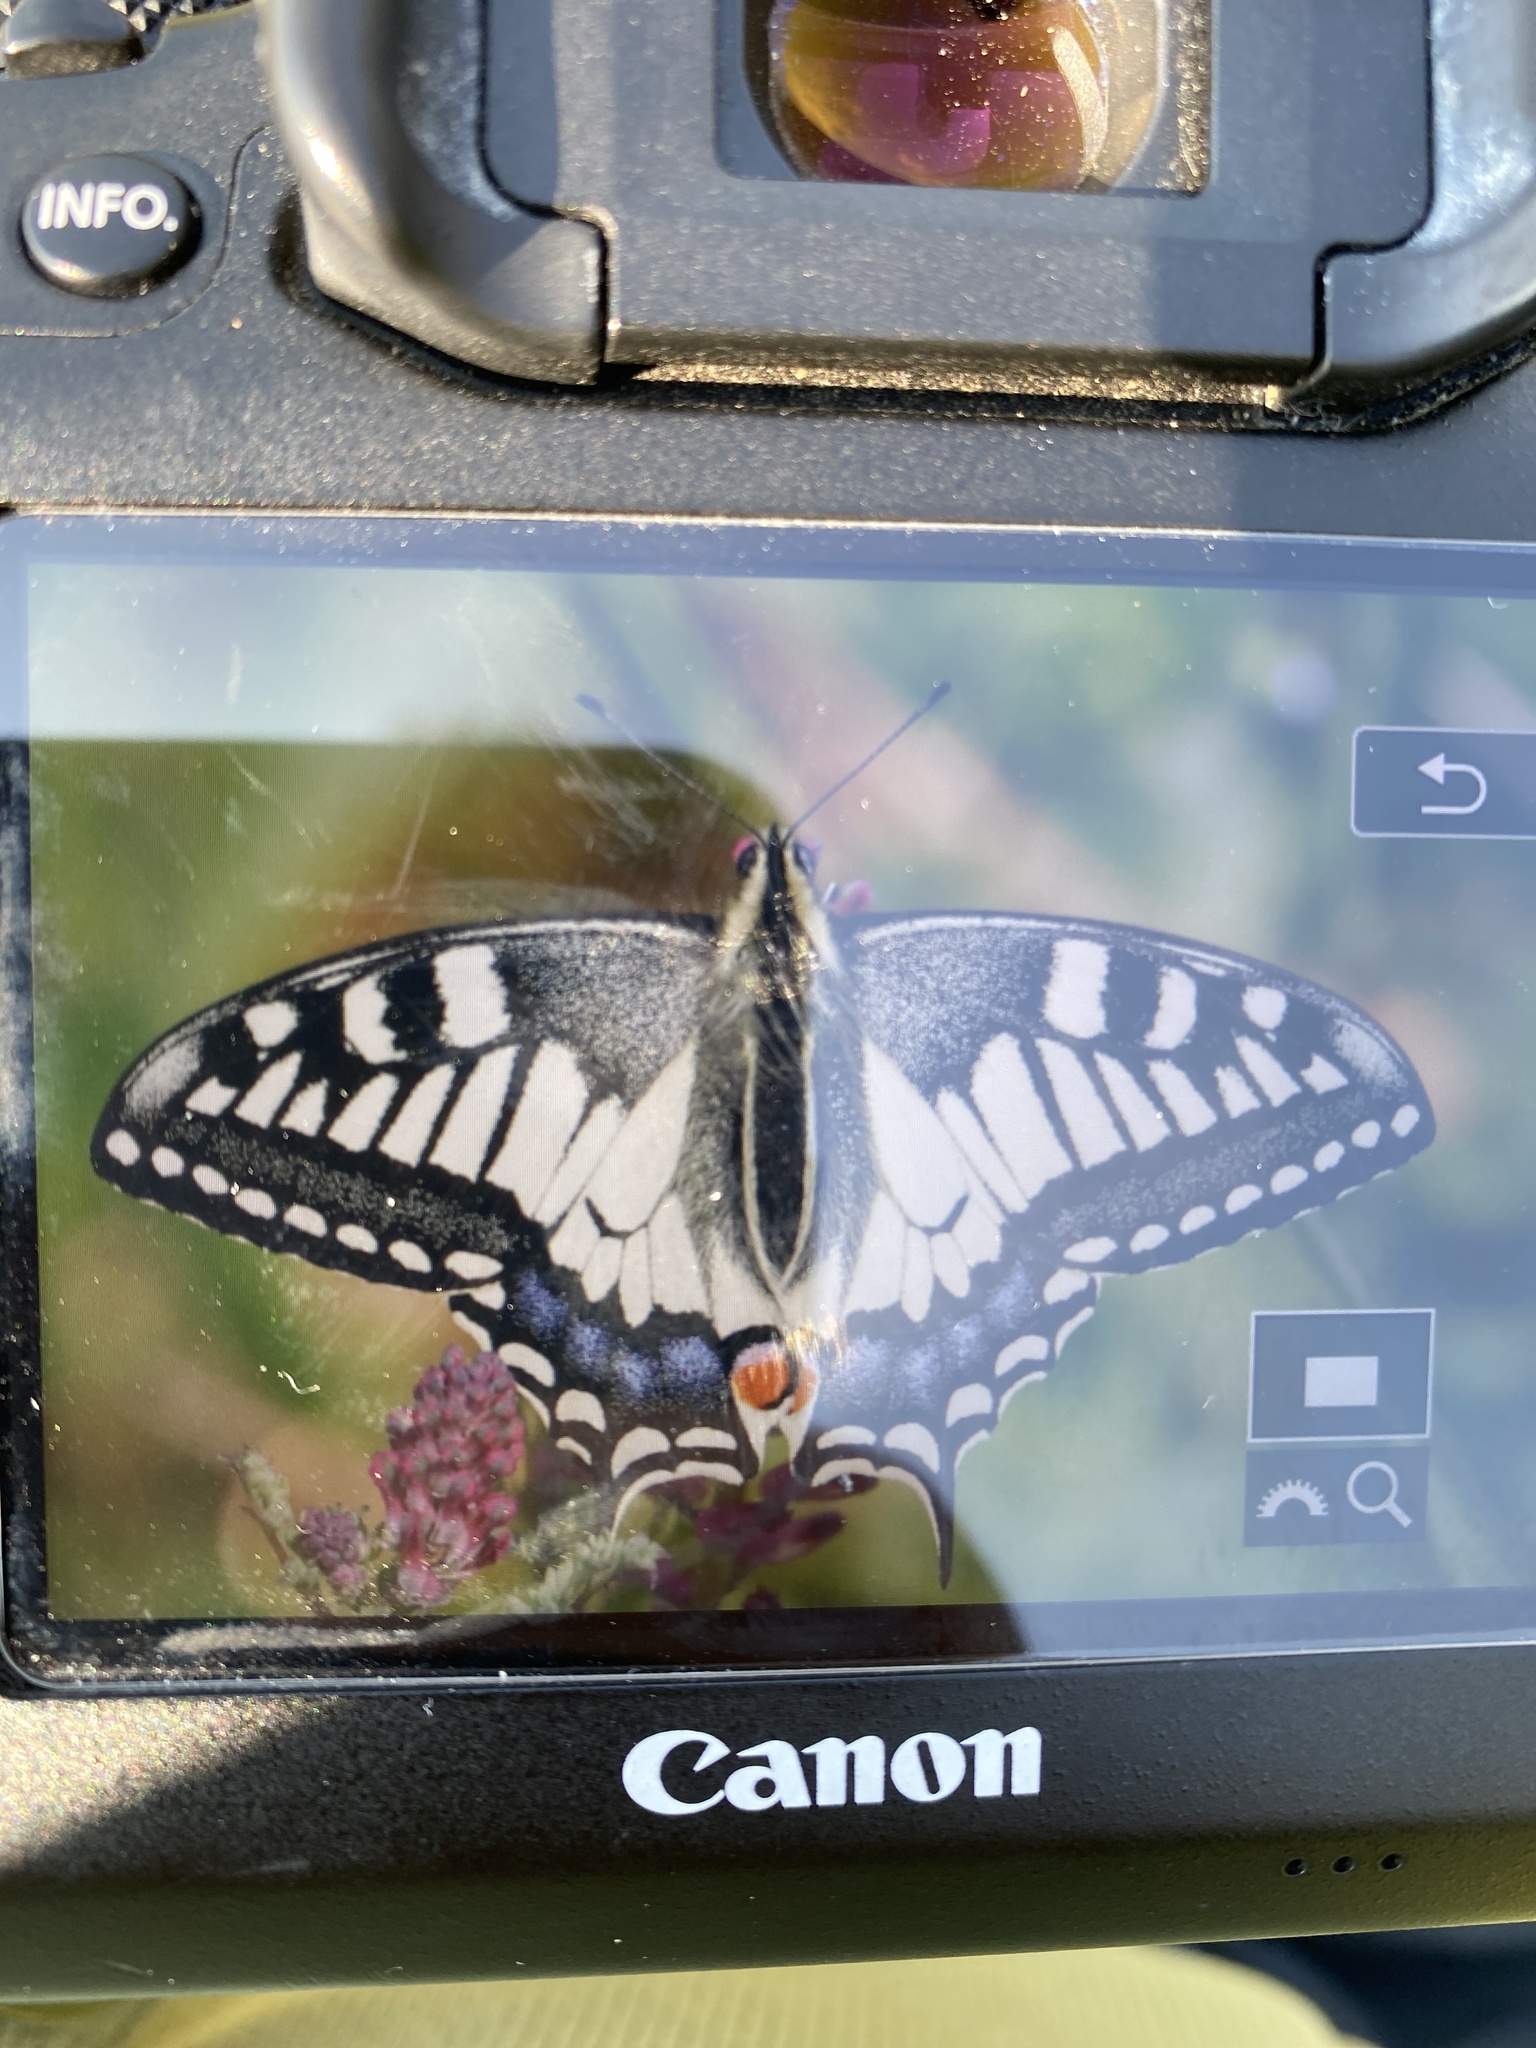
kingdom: Animalia
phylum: Arthropoda
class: Insecta
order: Lepidoptera
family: Papilionidae
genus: Papilio
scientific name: Papilio machaon
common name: Swallowtail
